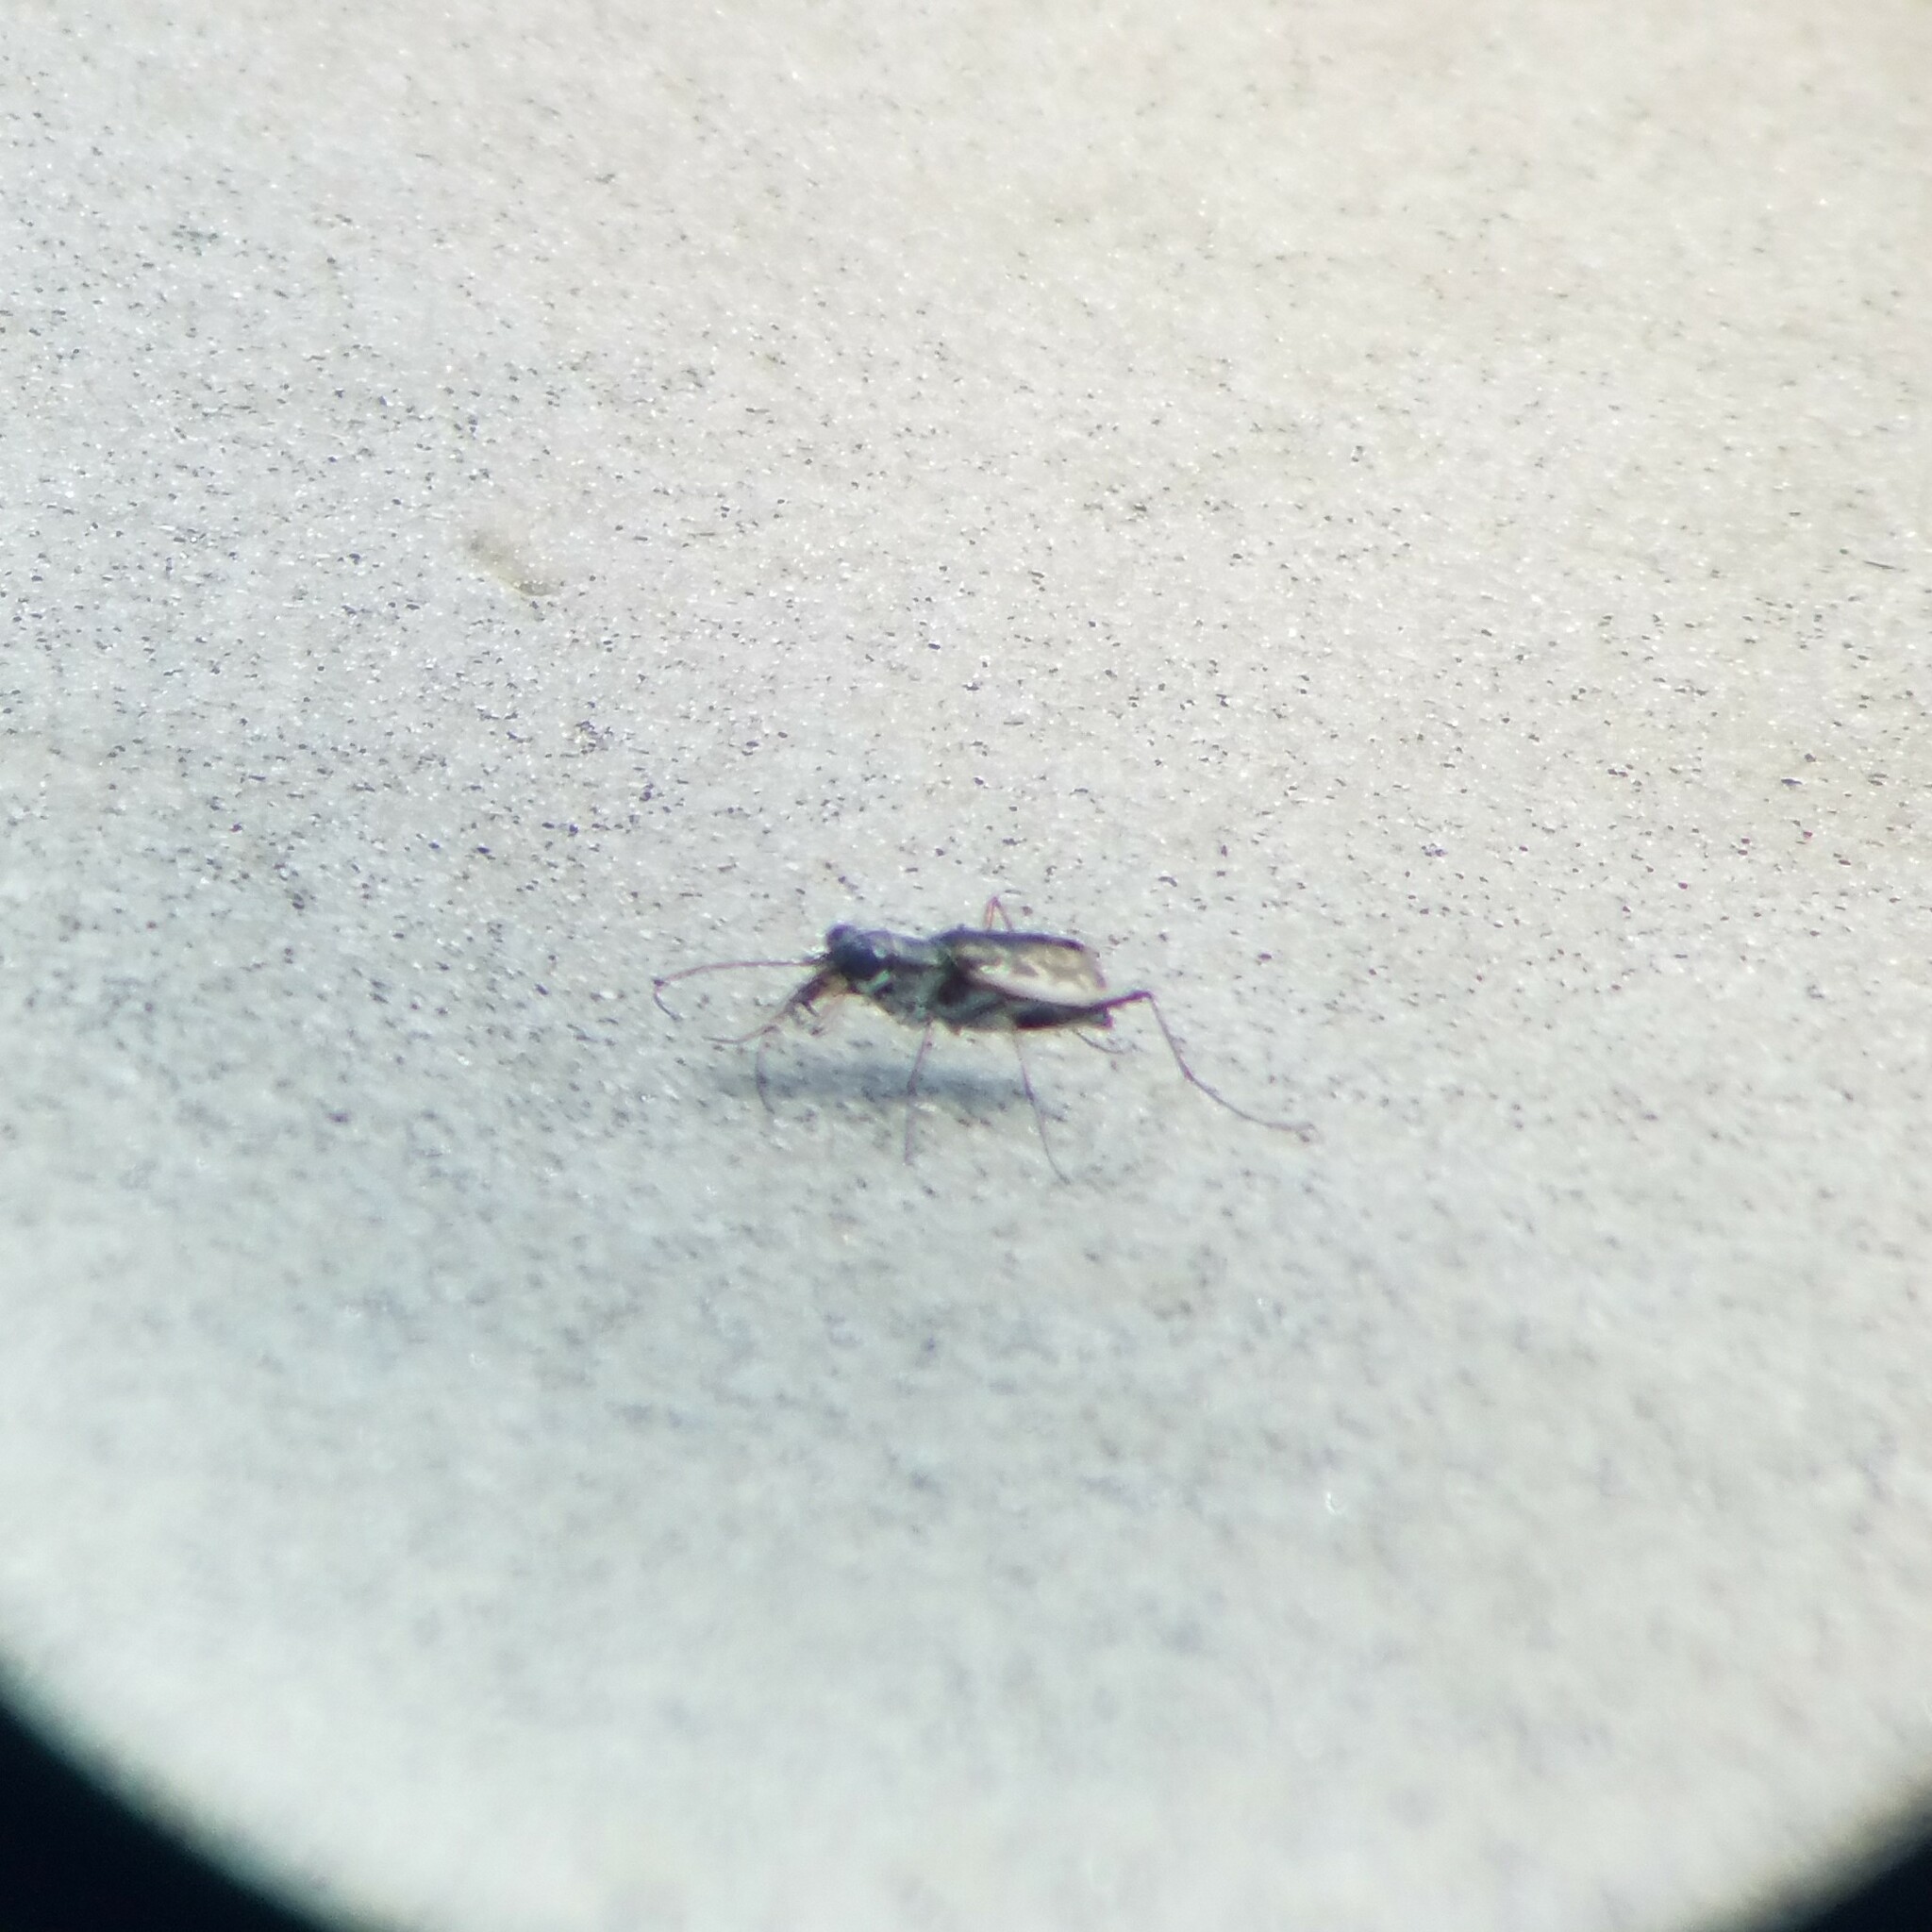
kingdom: Animalia
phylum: Arthropoda
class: Insecta
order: Coleoptera
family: Carabidae
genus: Ellipsoptera
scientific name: Ellipsoptera marginata
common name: Margined tiger beetle
